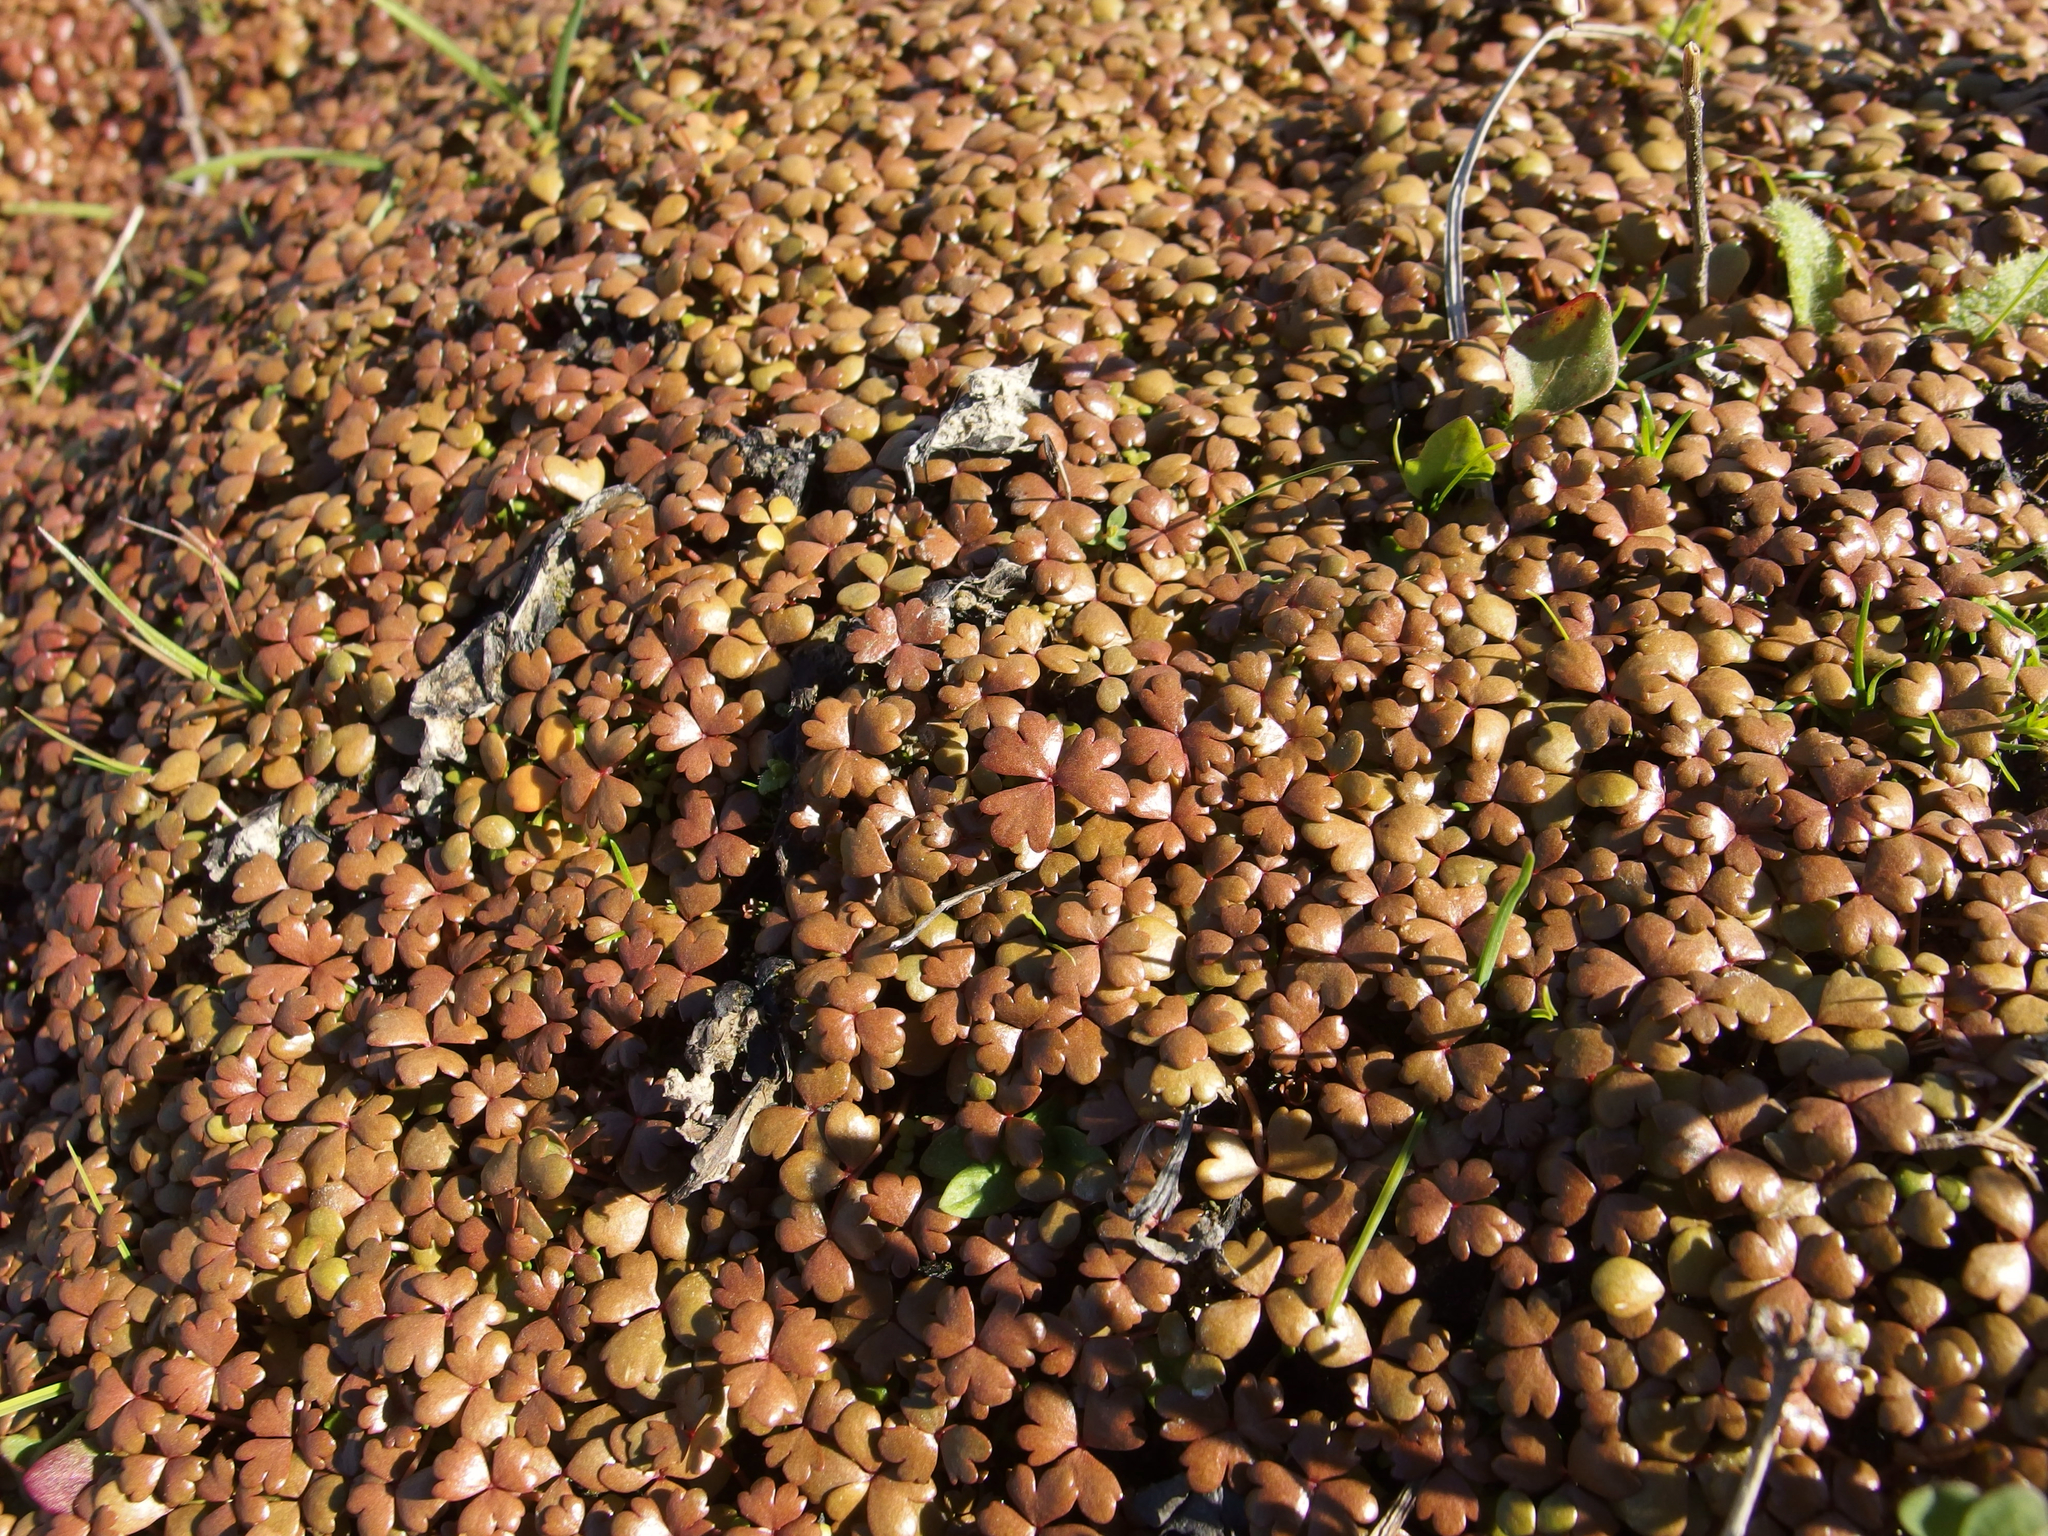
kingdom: Plantae
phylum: Tracheophyta
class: Magnoliopsida
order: Apiales
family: Araliaceae
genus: Hydrocotyle
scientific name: Hydrocotyle sulcata
